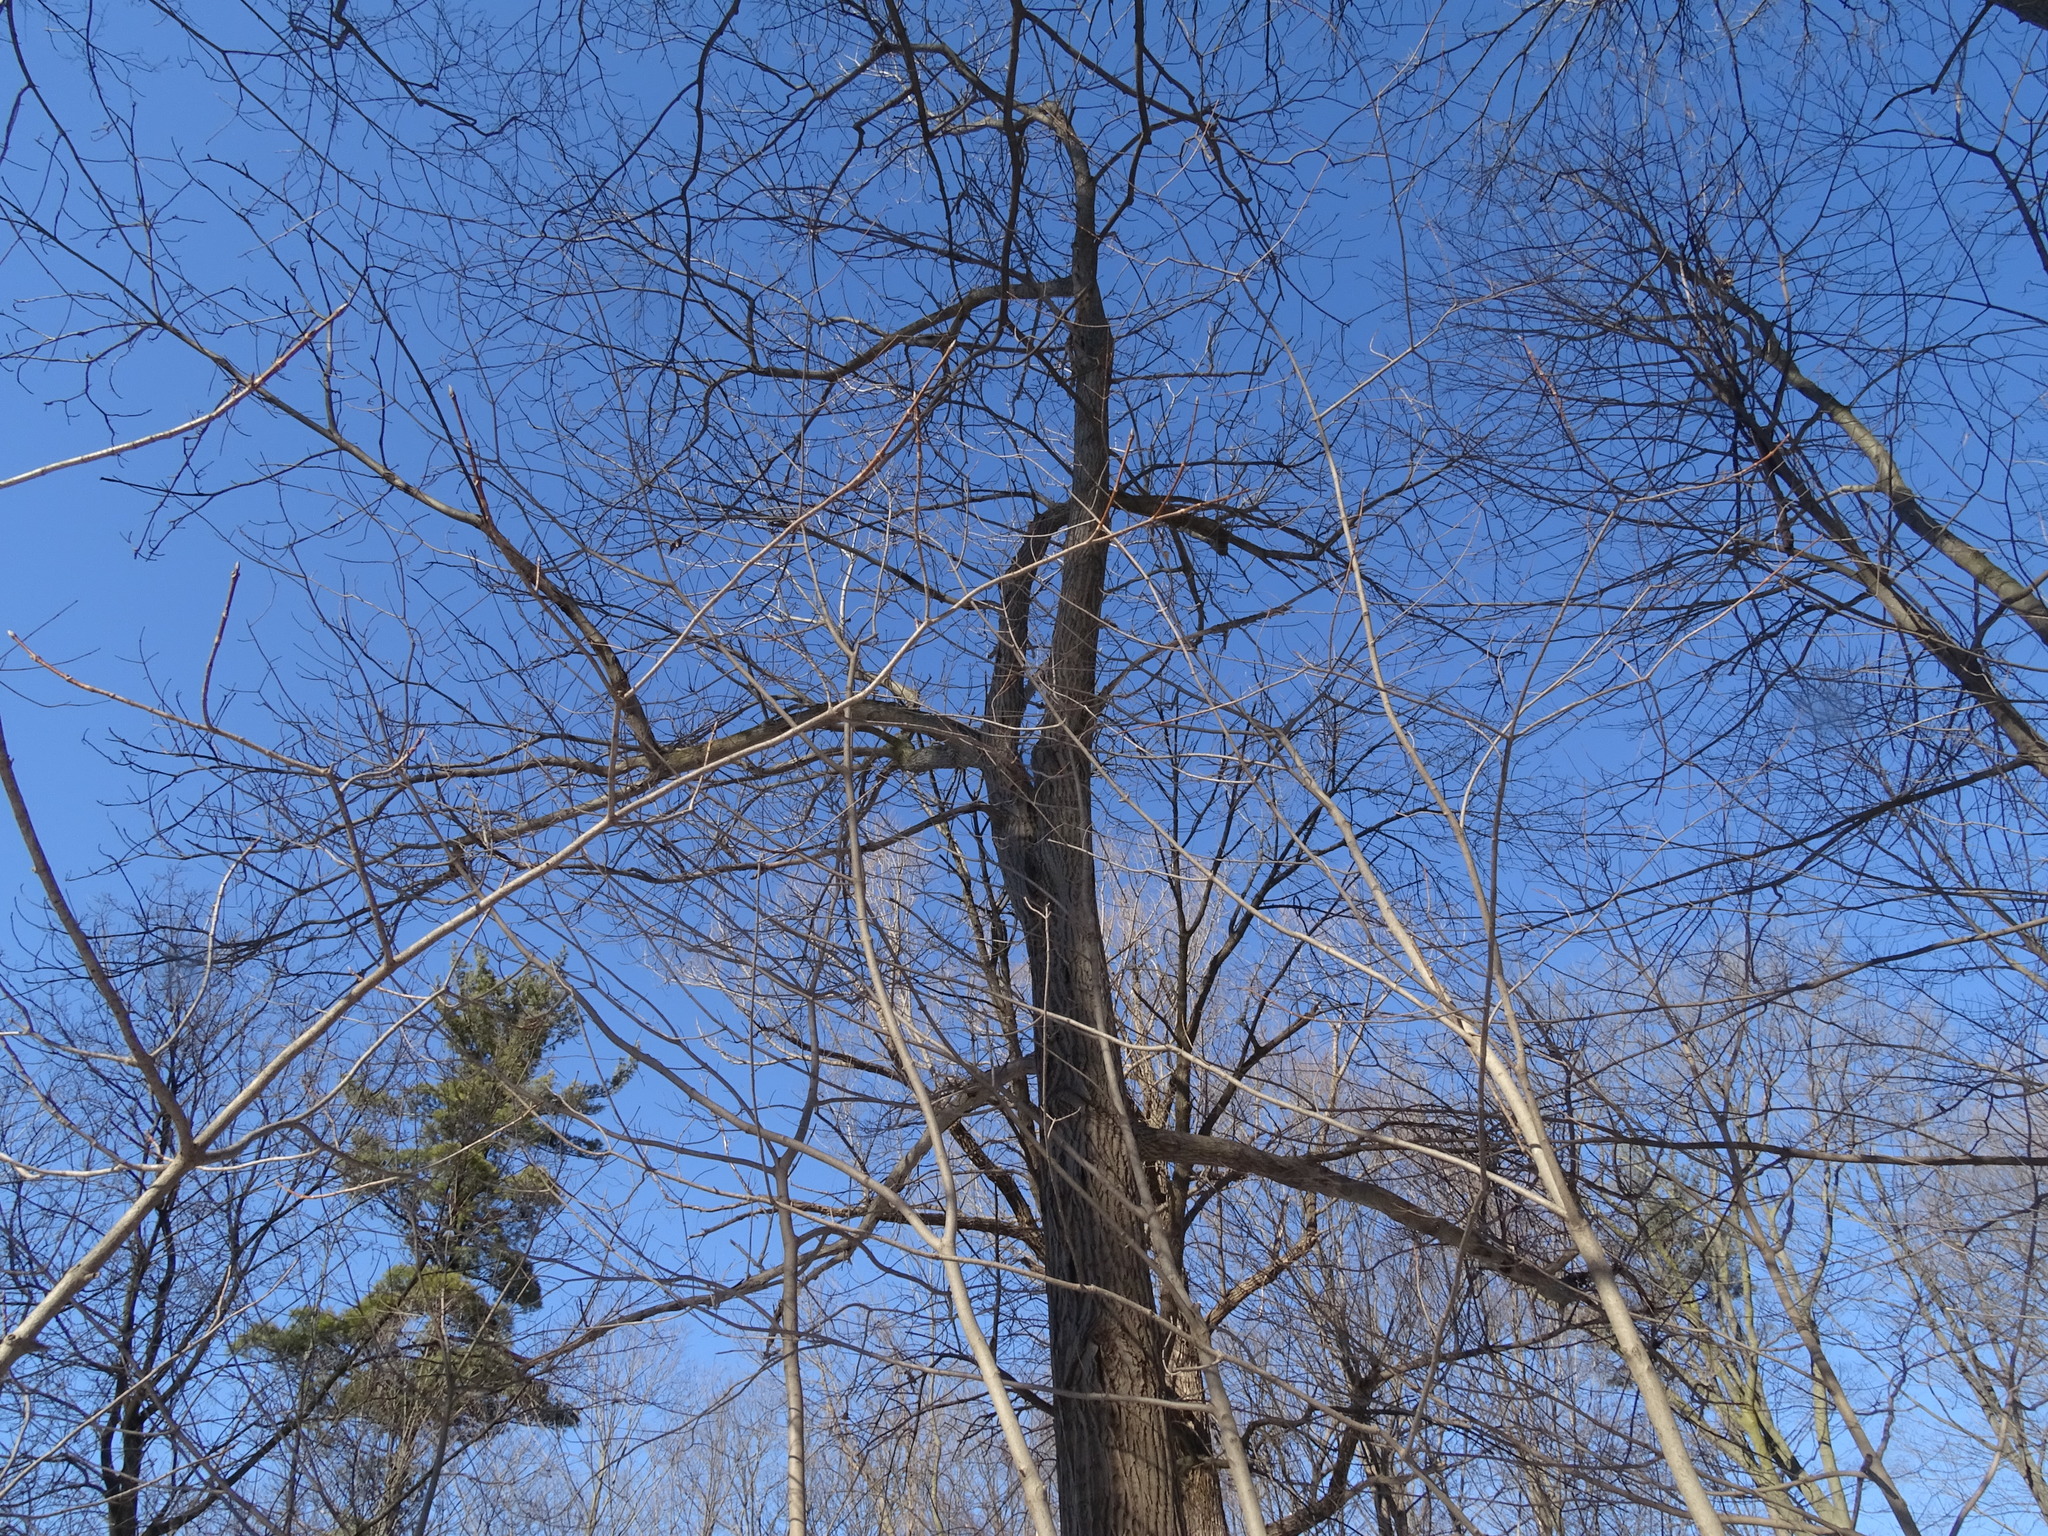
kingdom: Plantae
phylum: Tracheophyta
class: Magnoliopsida
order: Fagales
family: Juglandaceae
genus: Juglans
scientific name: Juglans cinerea
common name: Butternut
